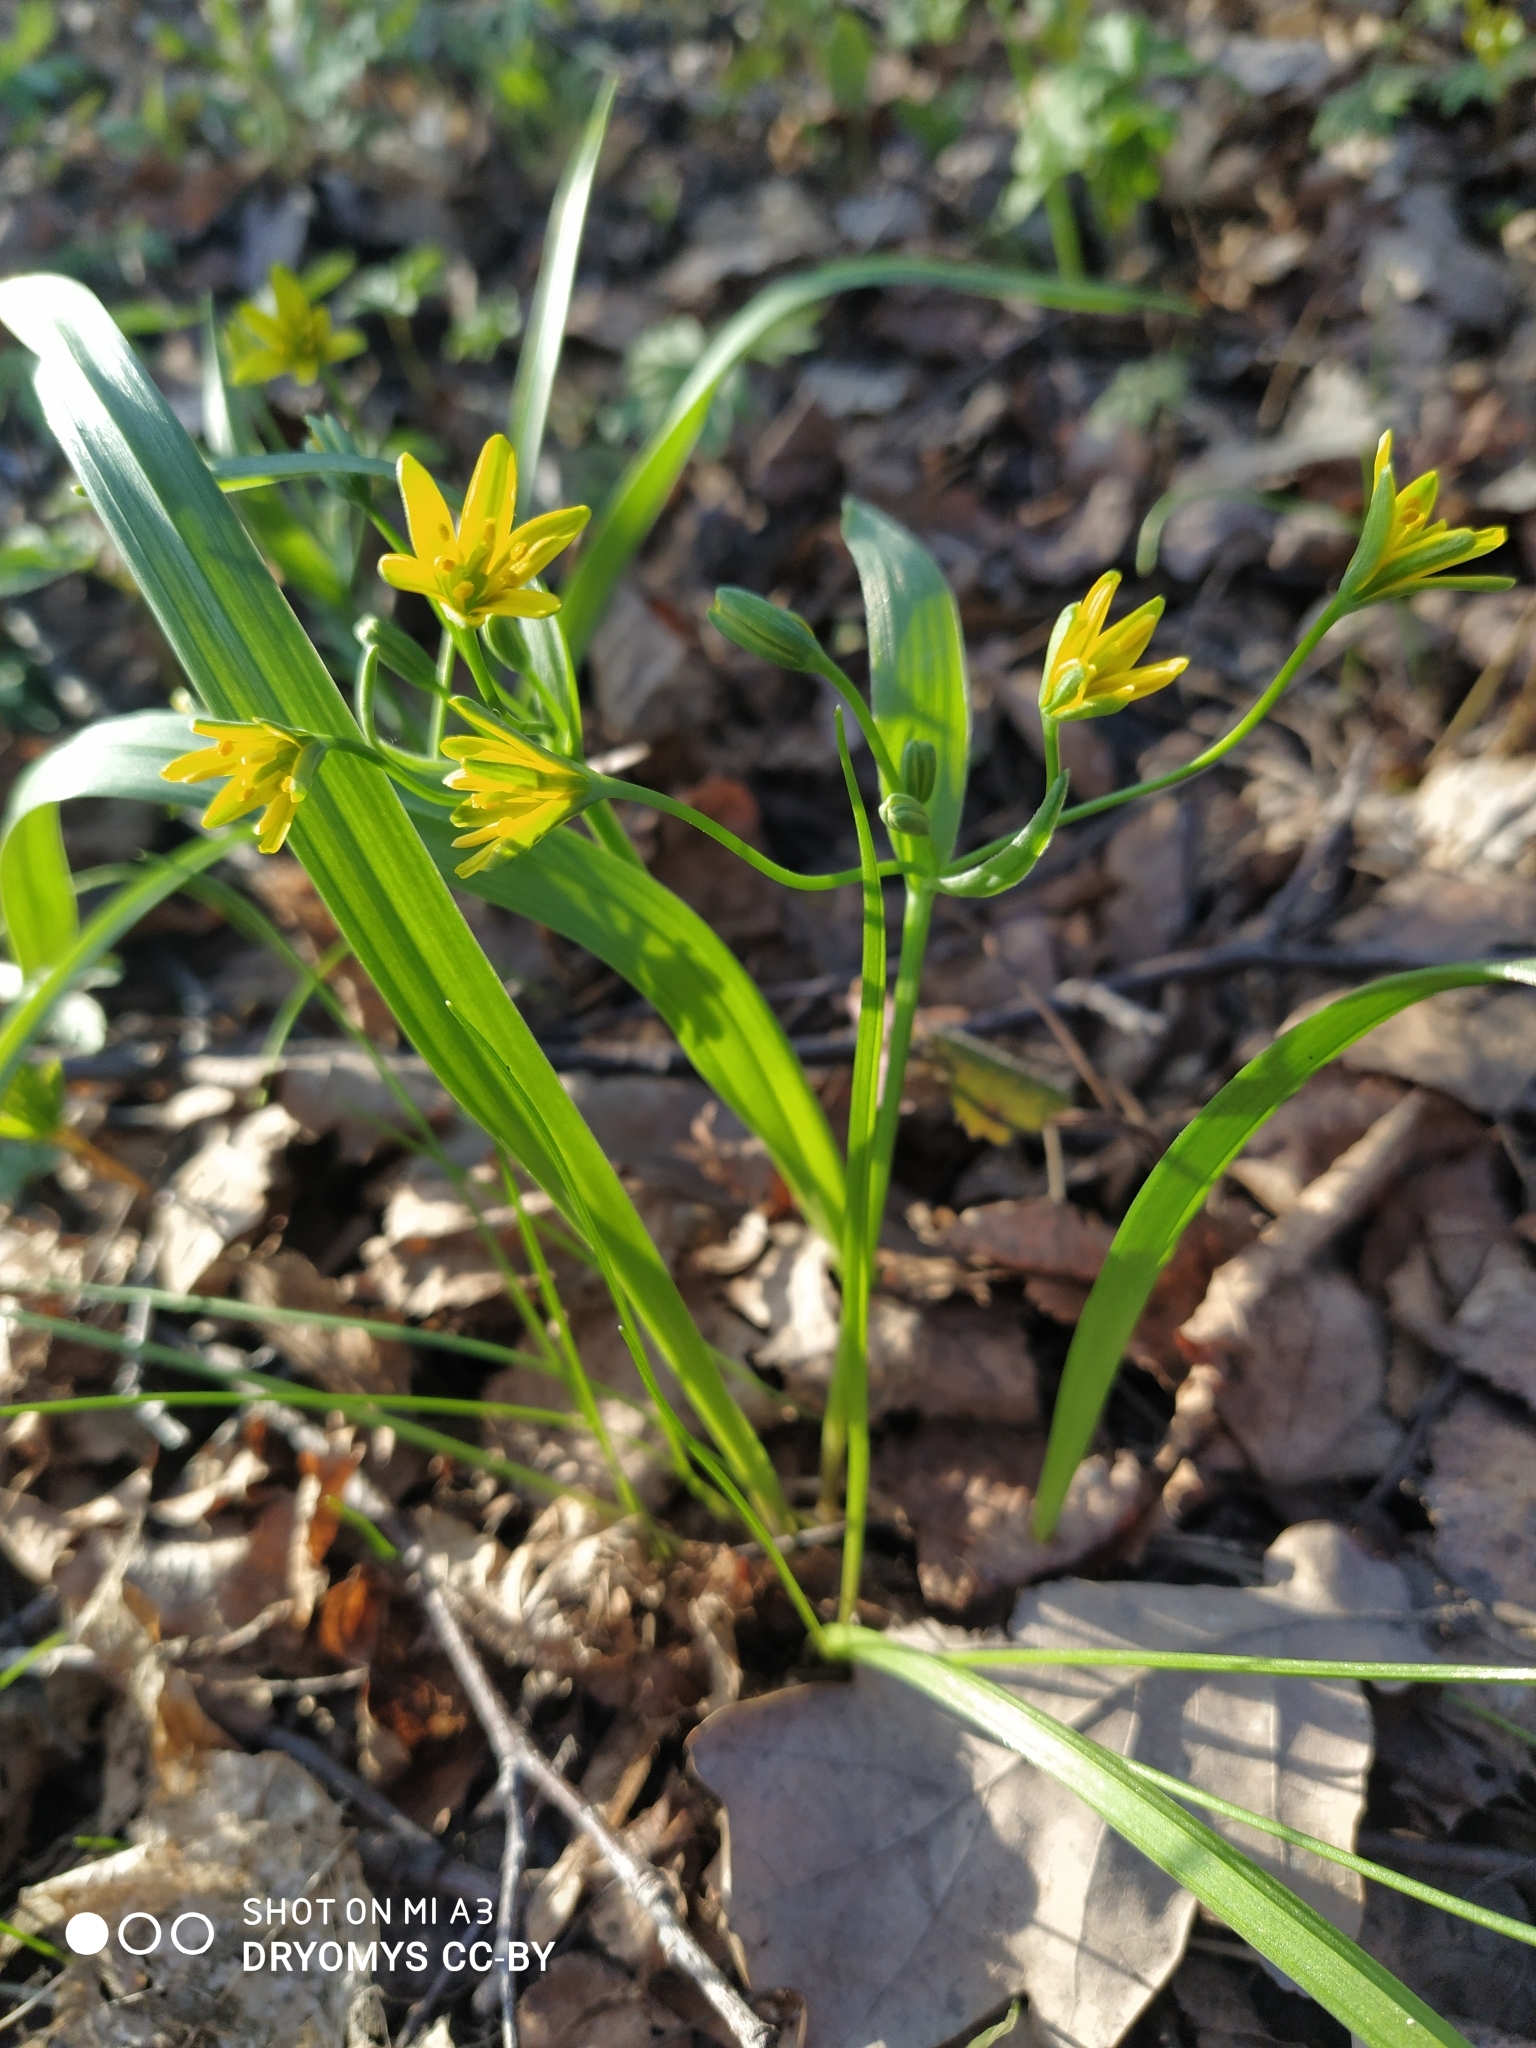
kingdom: Plantae
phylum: Tracheophyta
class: Liliopsida
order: Liliales
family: Liliaceae
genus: Gagea
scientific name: Gagea lutea
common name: Yellow star-of-bethlehem
